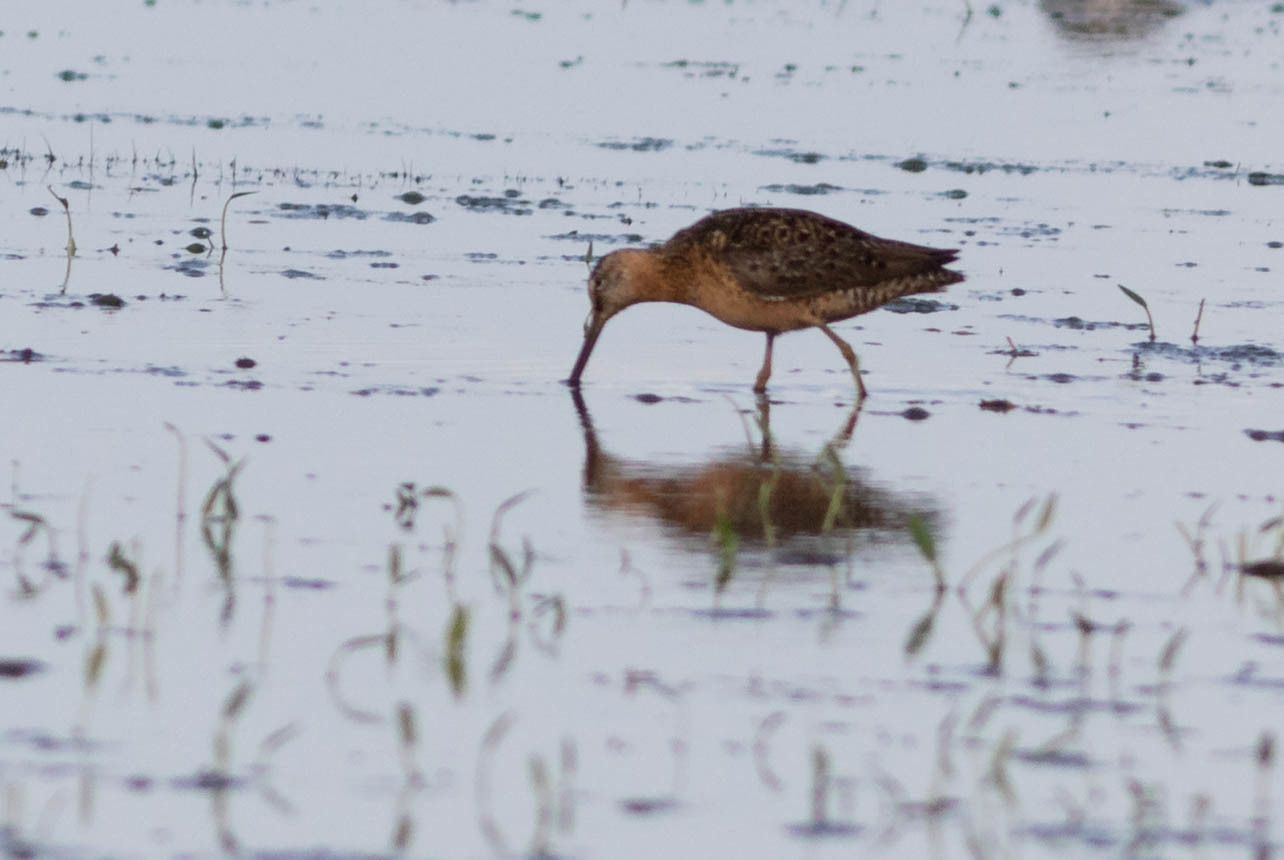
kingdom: Animalia
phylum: Chordata
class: Aves
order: Charadriiformes
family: Scolopacidae
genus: Limnodromus
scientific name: Limnodromus scolopaceus
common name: Long-billed dowitcher
